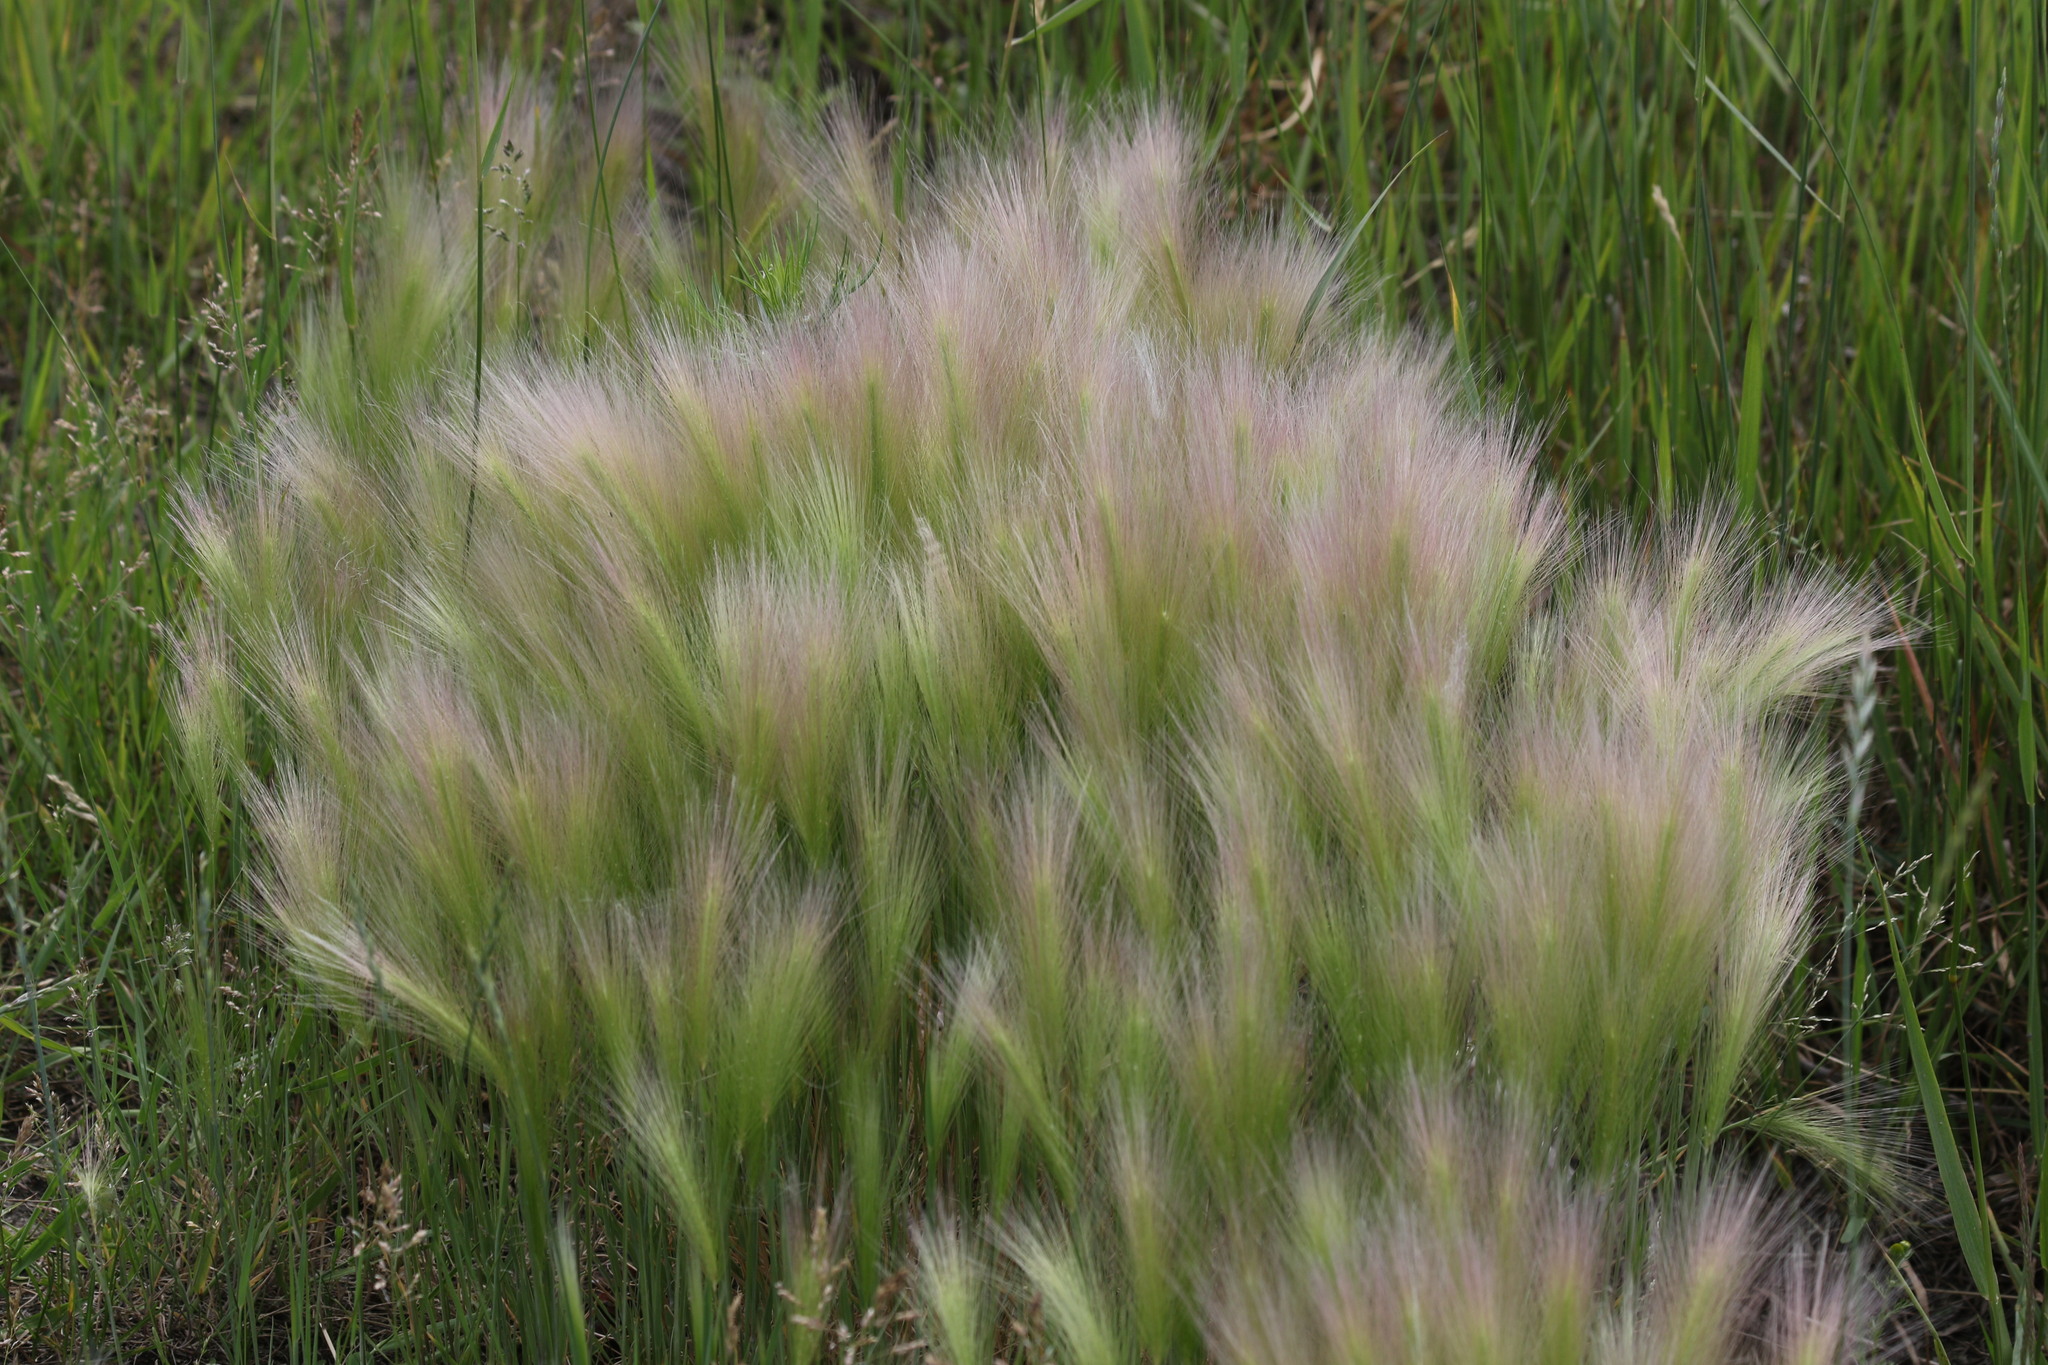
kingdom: Plantae
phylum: Tracheophyta
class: Liliopsida
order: Poales
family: Poaceae
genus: Hordeum
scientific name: Hordeum jubatum
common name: Foxtail barley
